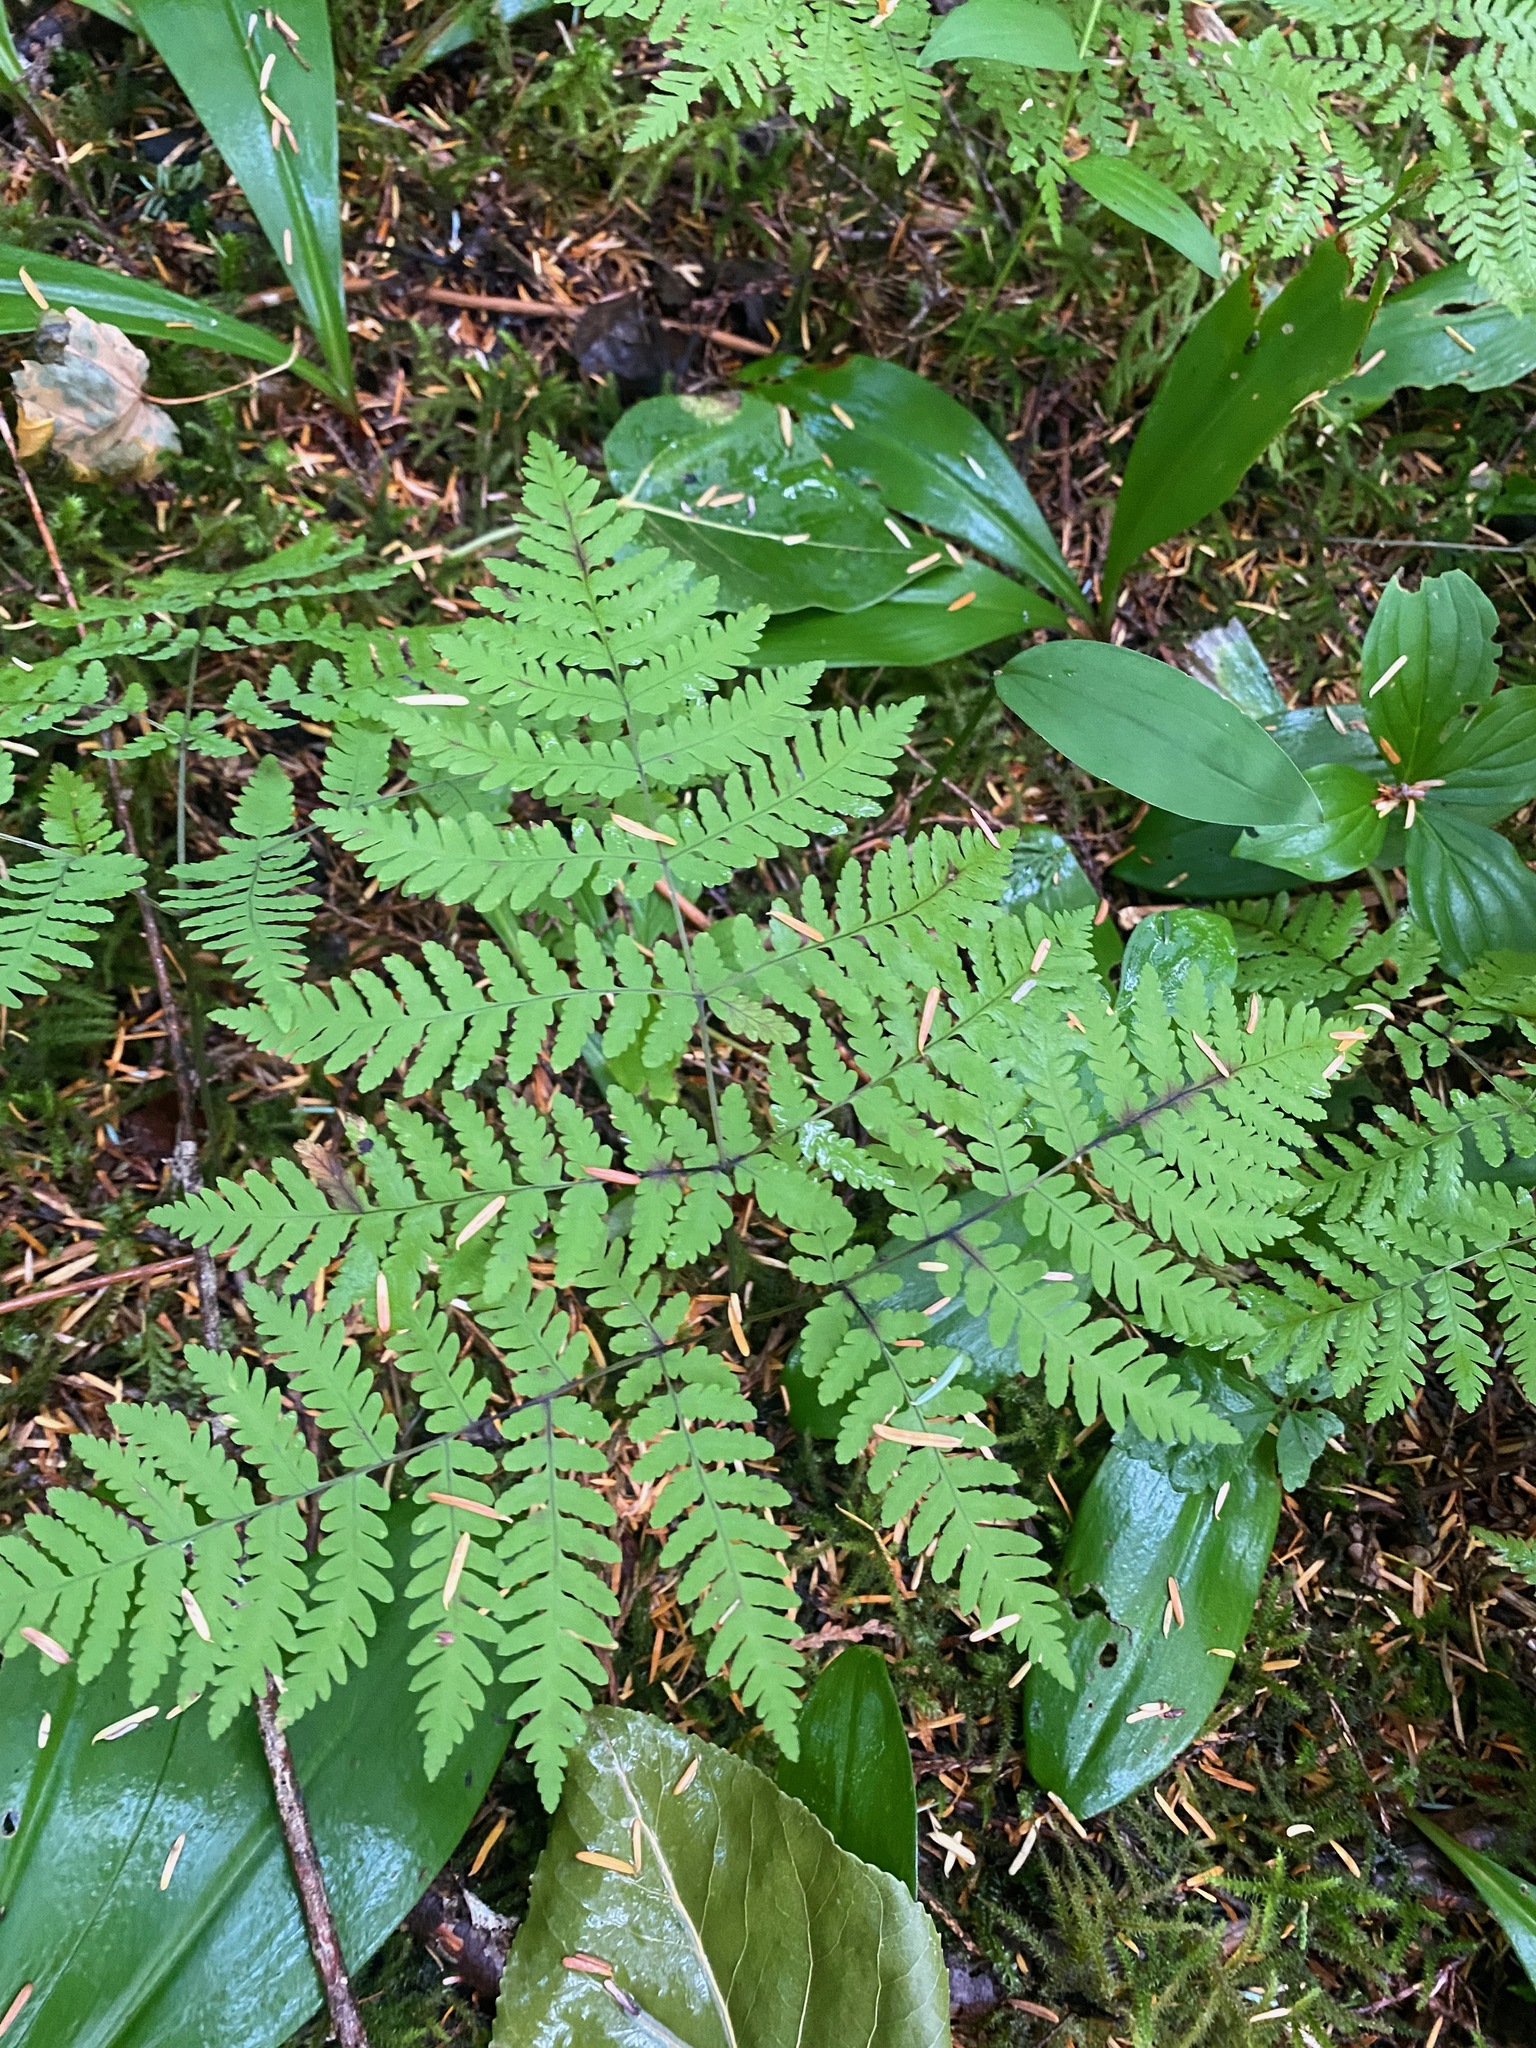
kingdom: Plantae
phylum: Tracheophyta
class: Polypodiopsida
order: Polypodiales
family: Cystopteridaceae
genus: Gymnocarpium
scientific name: Gymnocarpium dryopteris
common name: Oak fern
